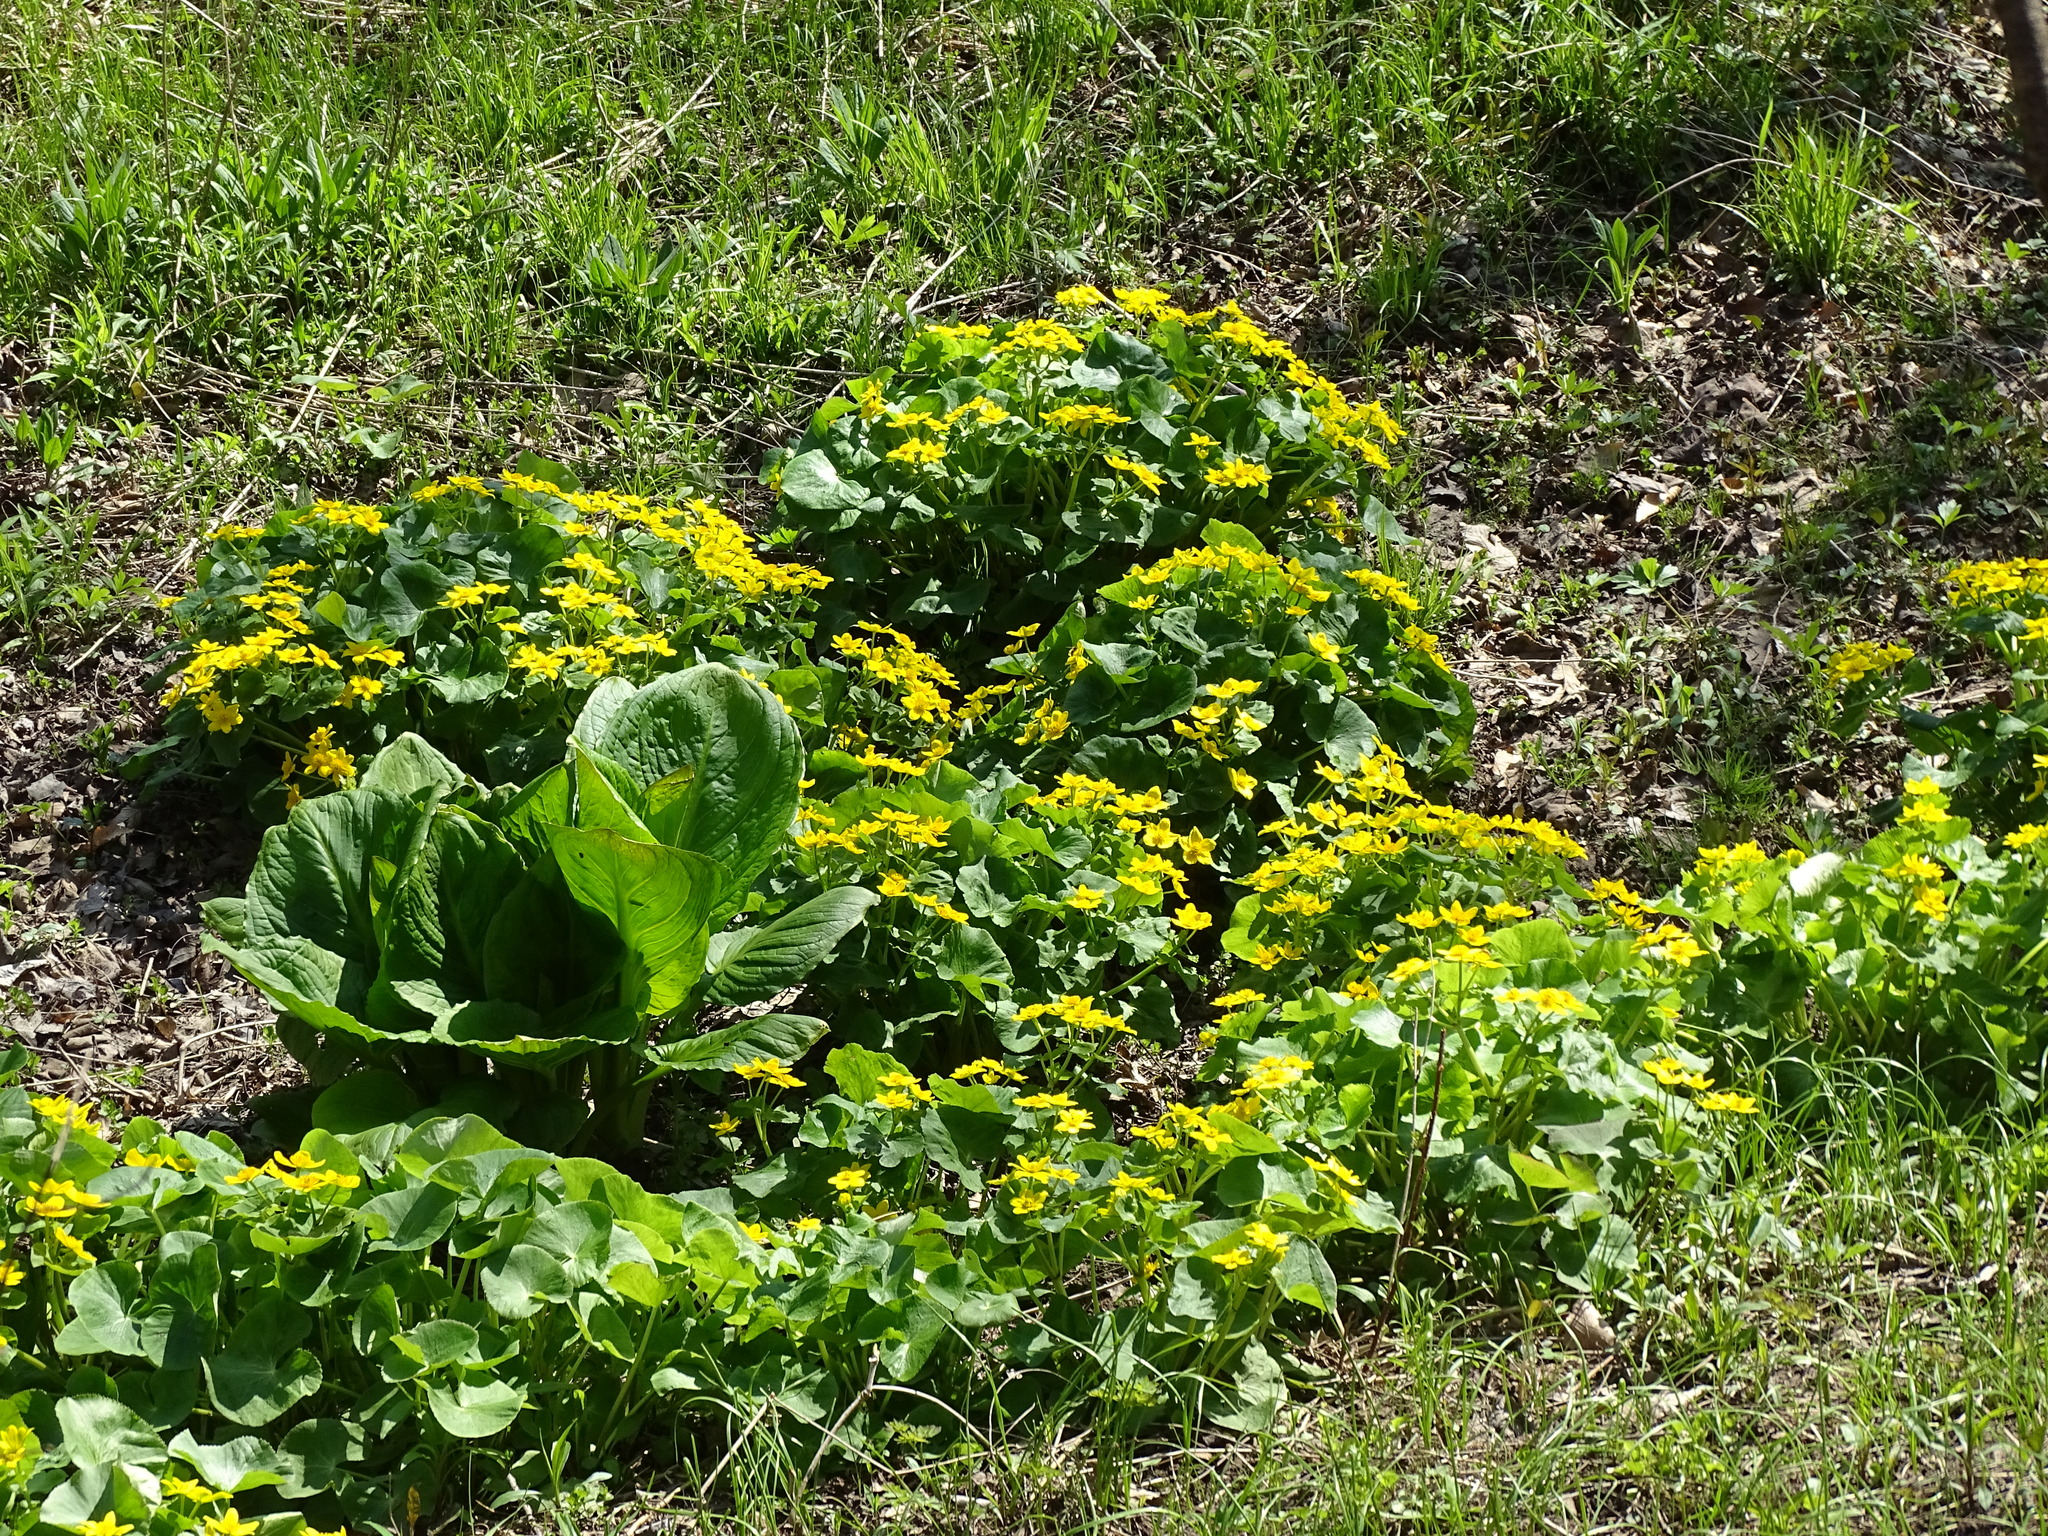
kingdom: Plantae
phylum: Tracheophyta
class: Magnoliopsida
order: Ranunculales
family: Ranunculaceae
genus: Caltha
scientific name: Caltha palustris
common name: Marsh marigold
